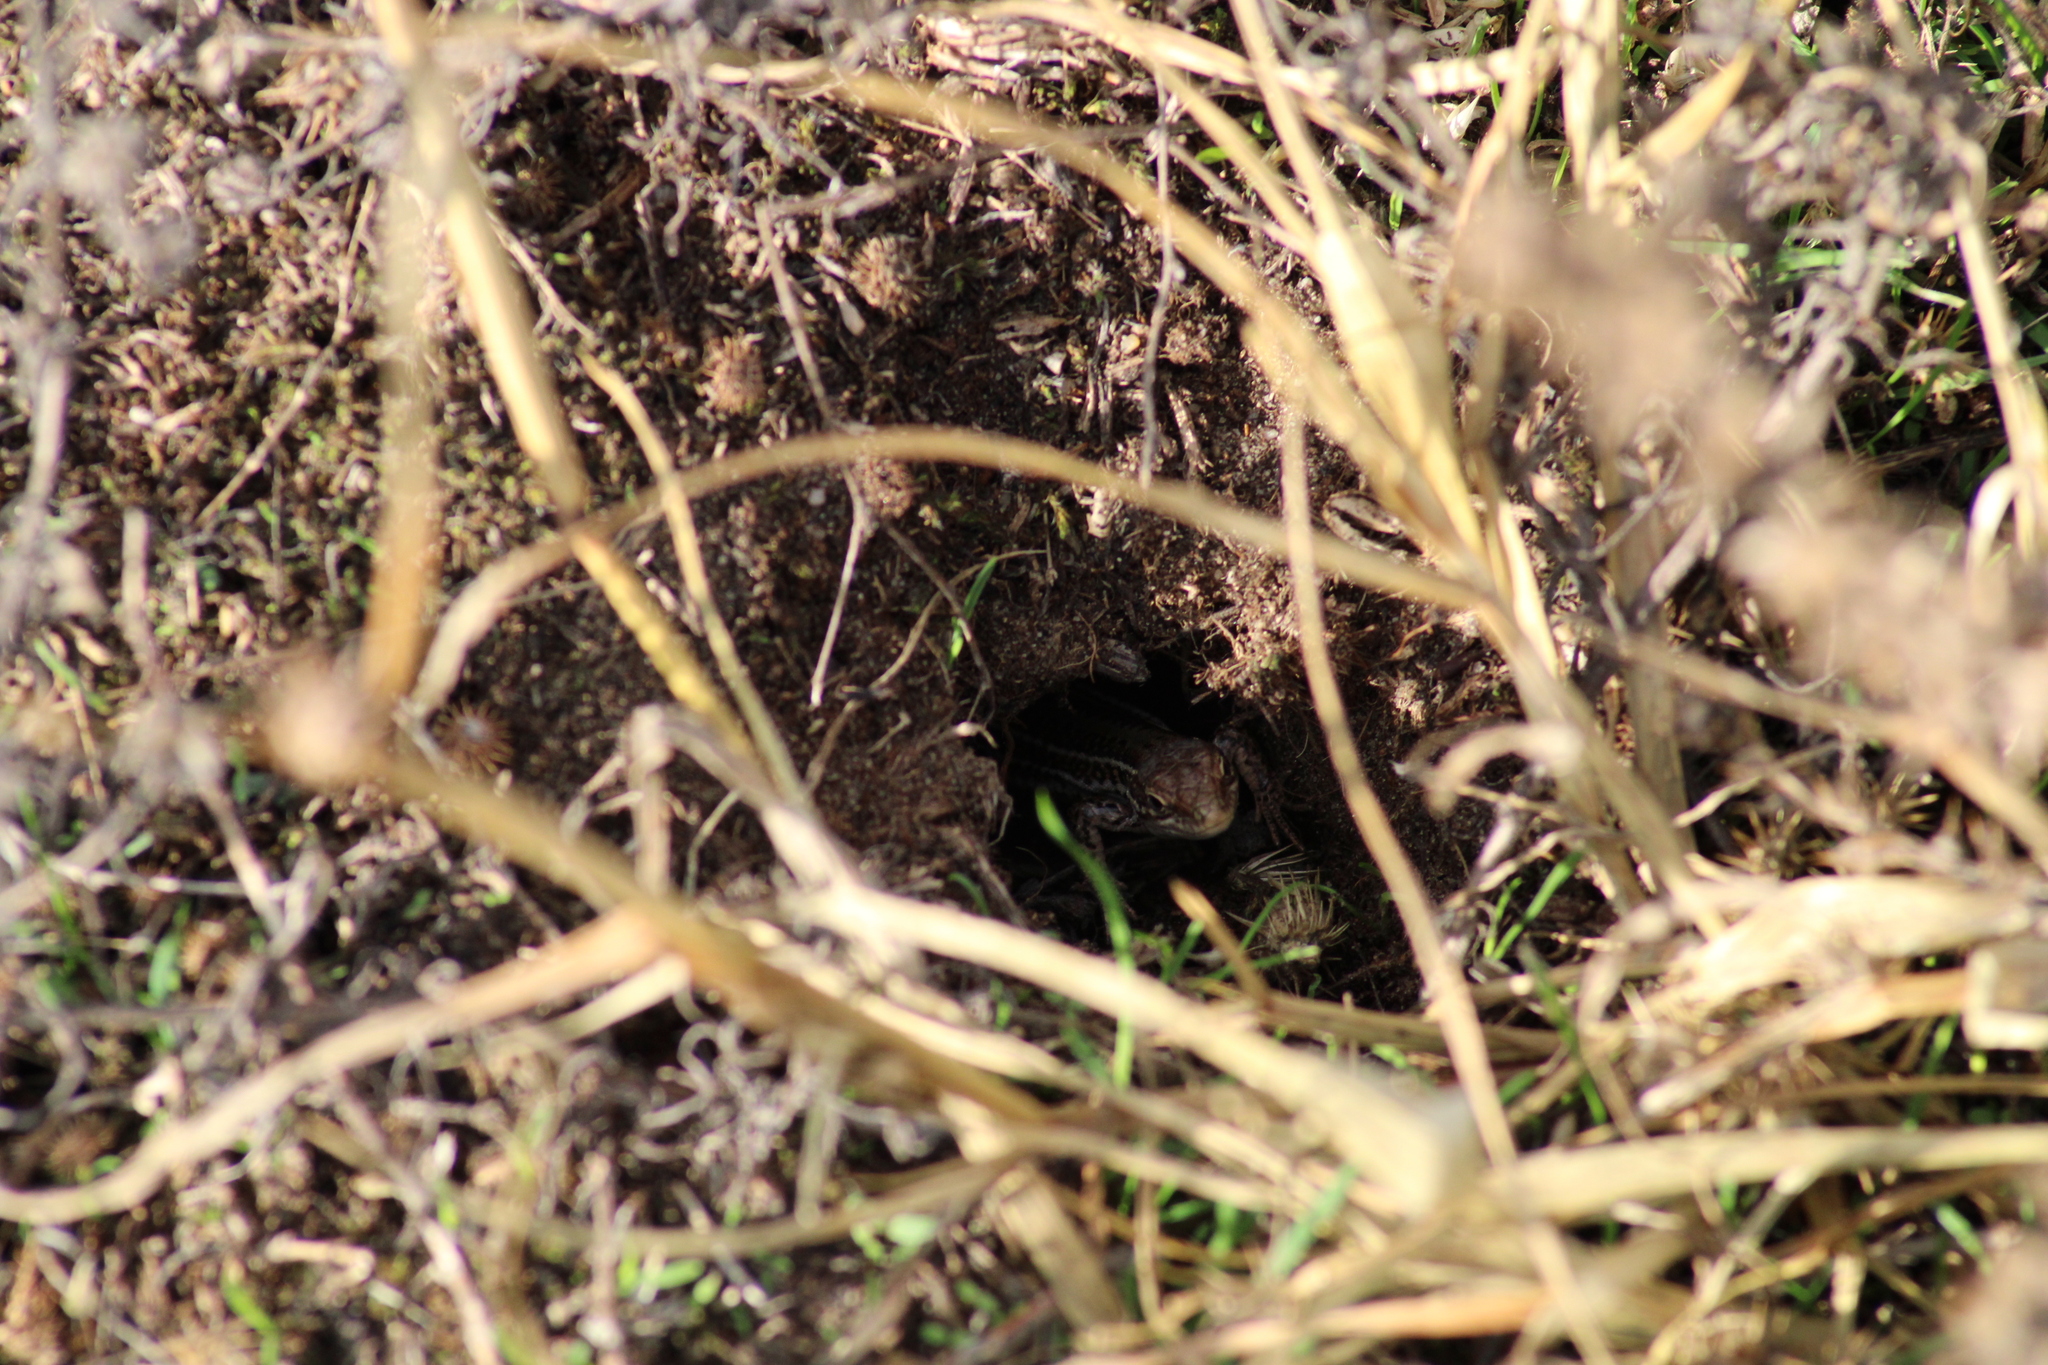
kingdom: Animalia
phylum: Chordata
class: Squamata
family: Lacertidae
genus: Podarcis
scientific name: Podarcis tauricus
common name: Balkan wall lizard
